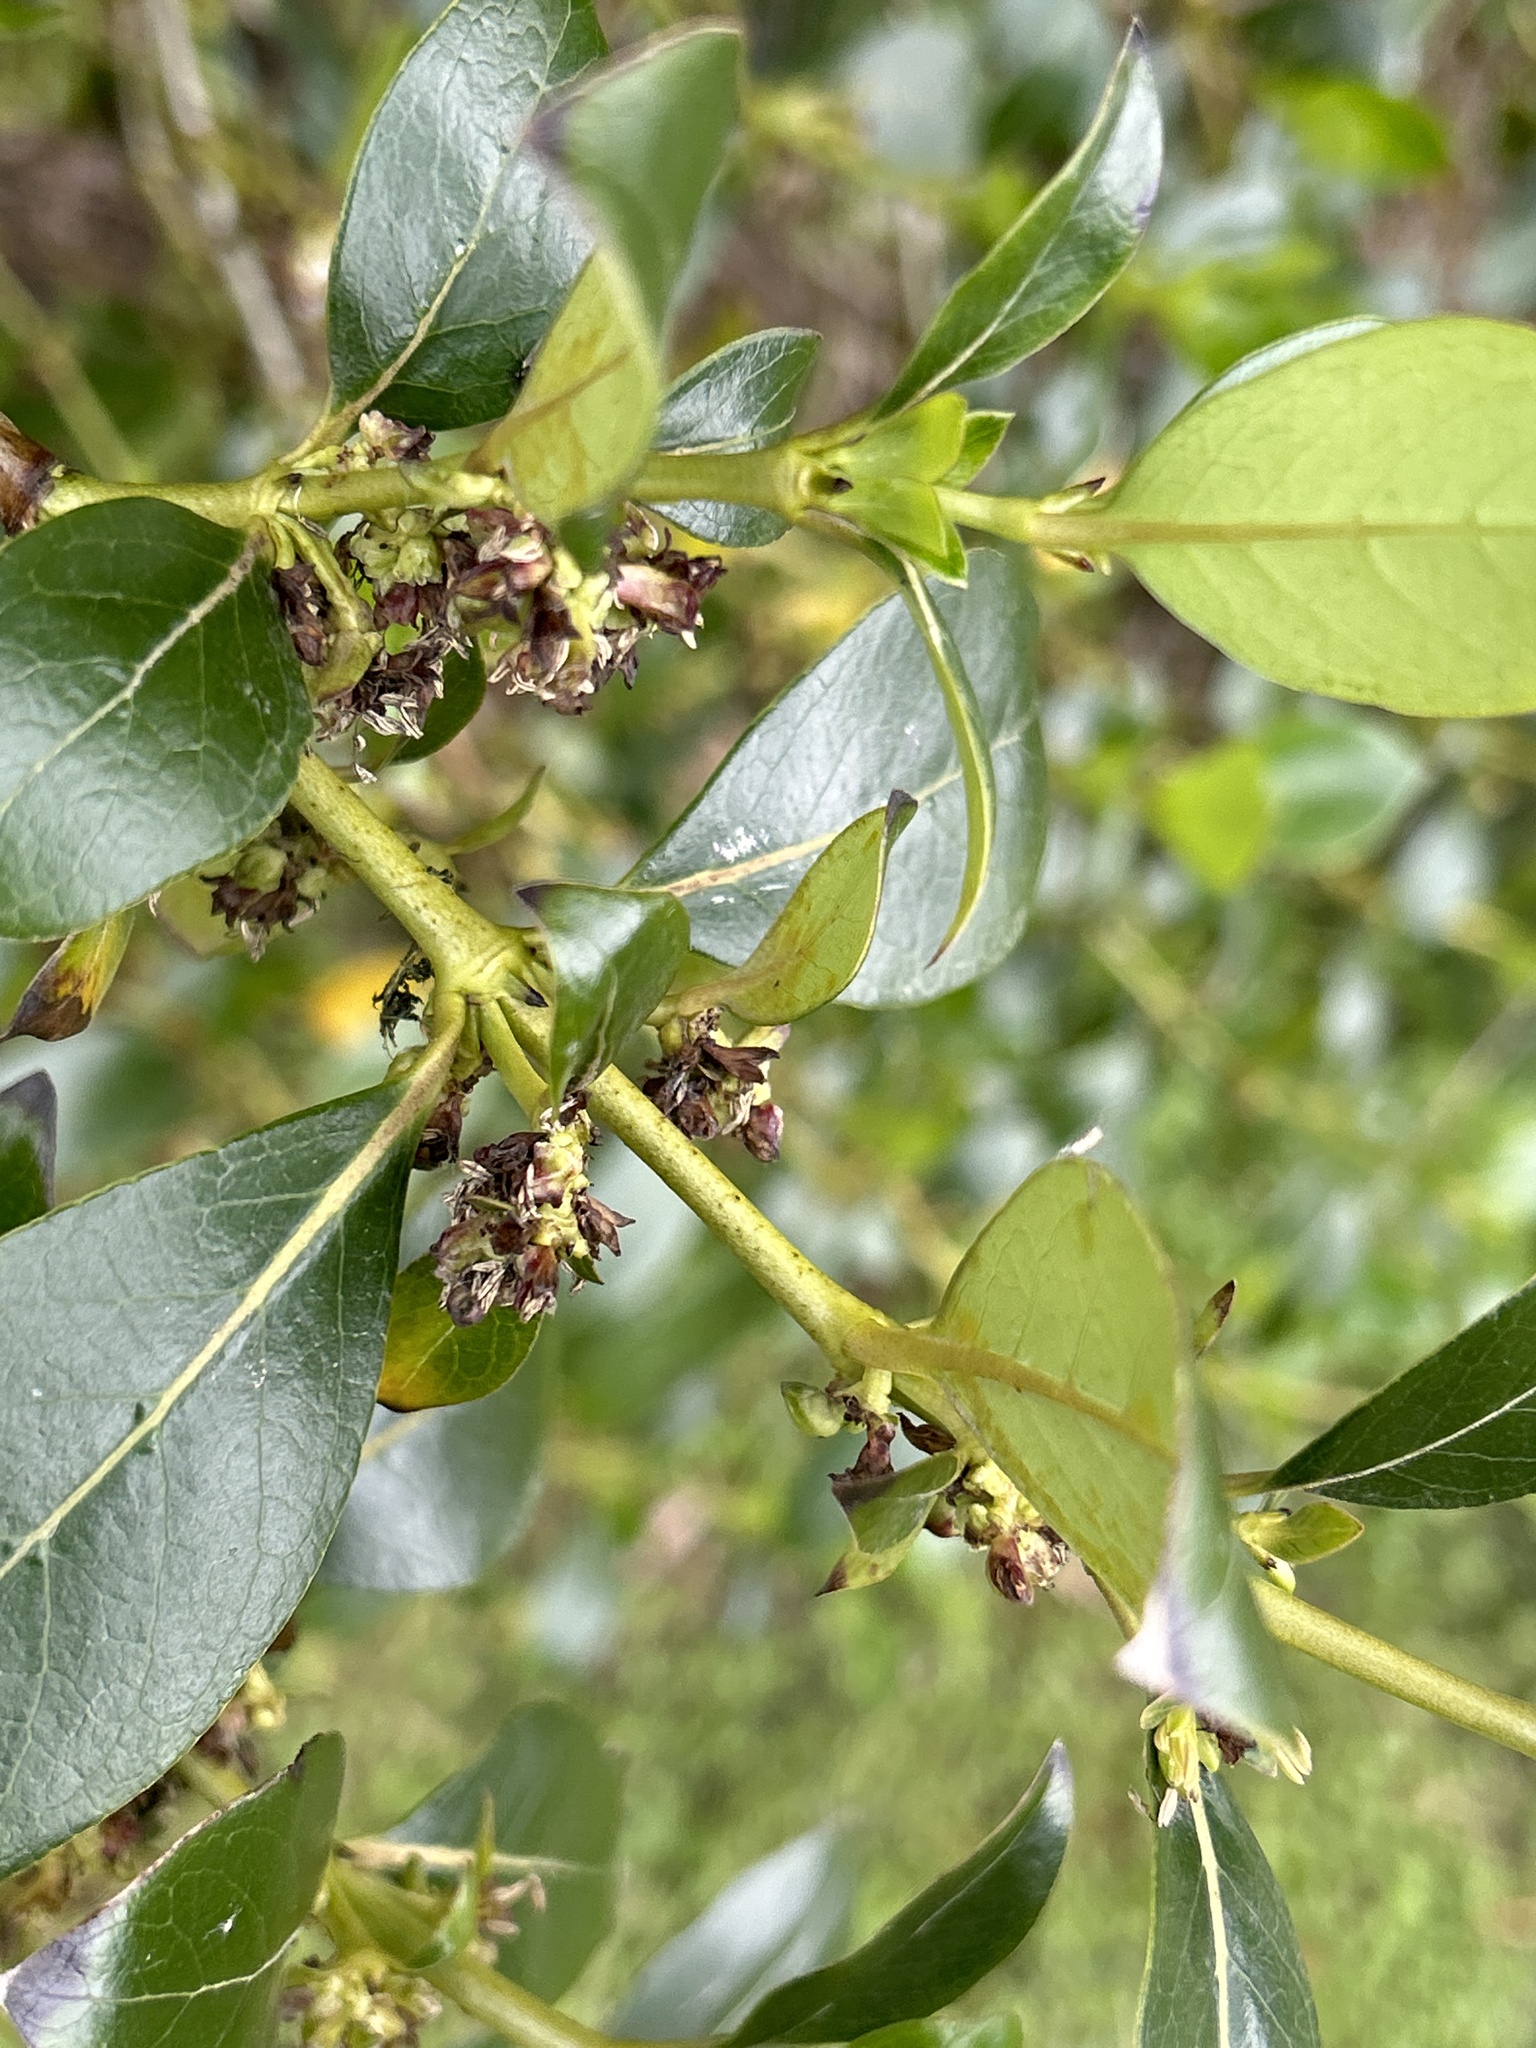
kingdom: Plantae
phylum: Tracheophyta
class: Magnoliopsida
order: Gentianales
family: Rubiaceae
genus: Coprosma
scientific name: Coprosma robusta
